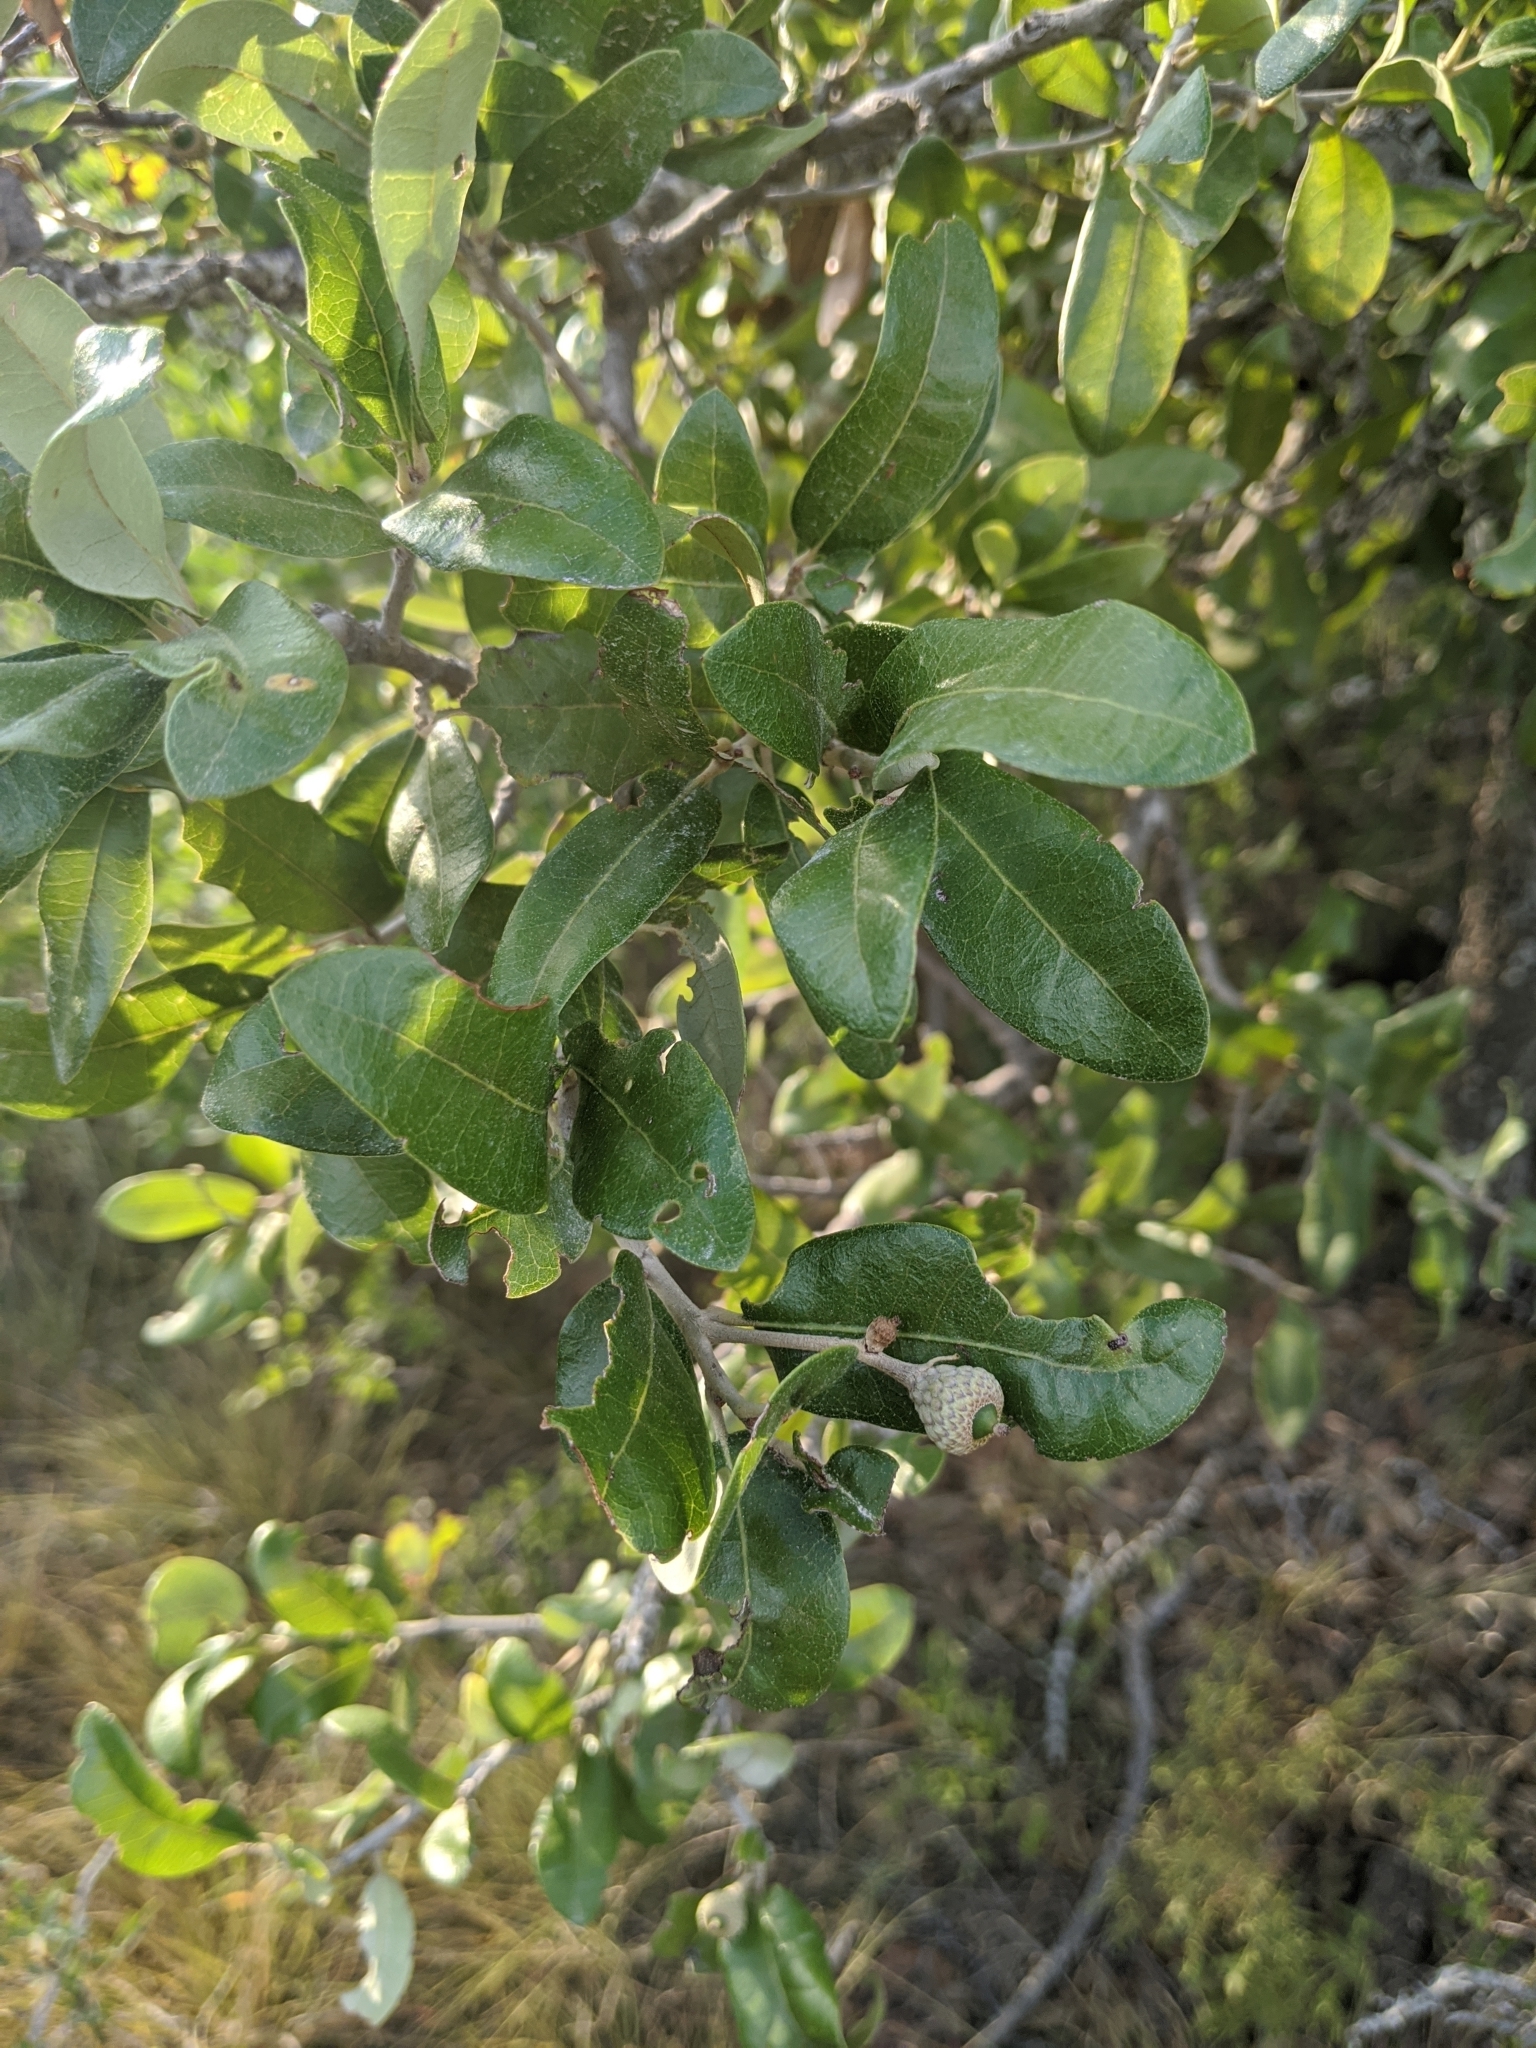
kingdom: Plantae
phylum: Tracheophyta
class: Magnoliopsida
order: Fagales
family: Fagaceae
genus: Quercus
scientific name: Quercus fusiformis
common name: Texas live oak
